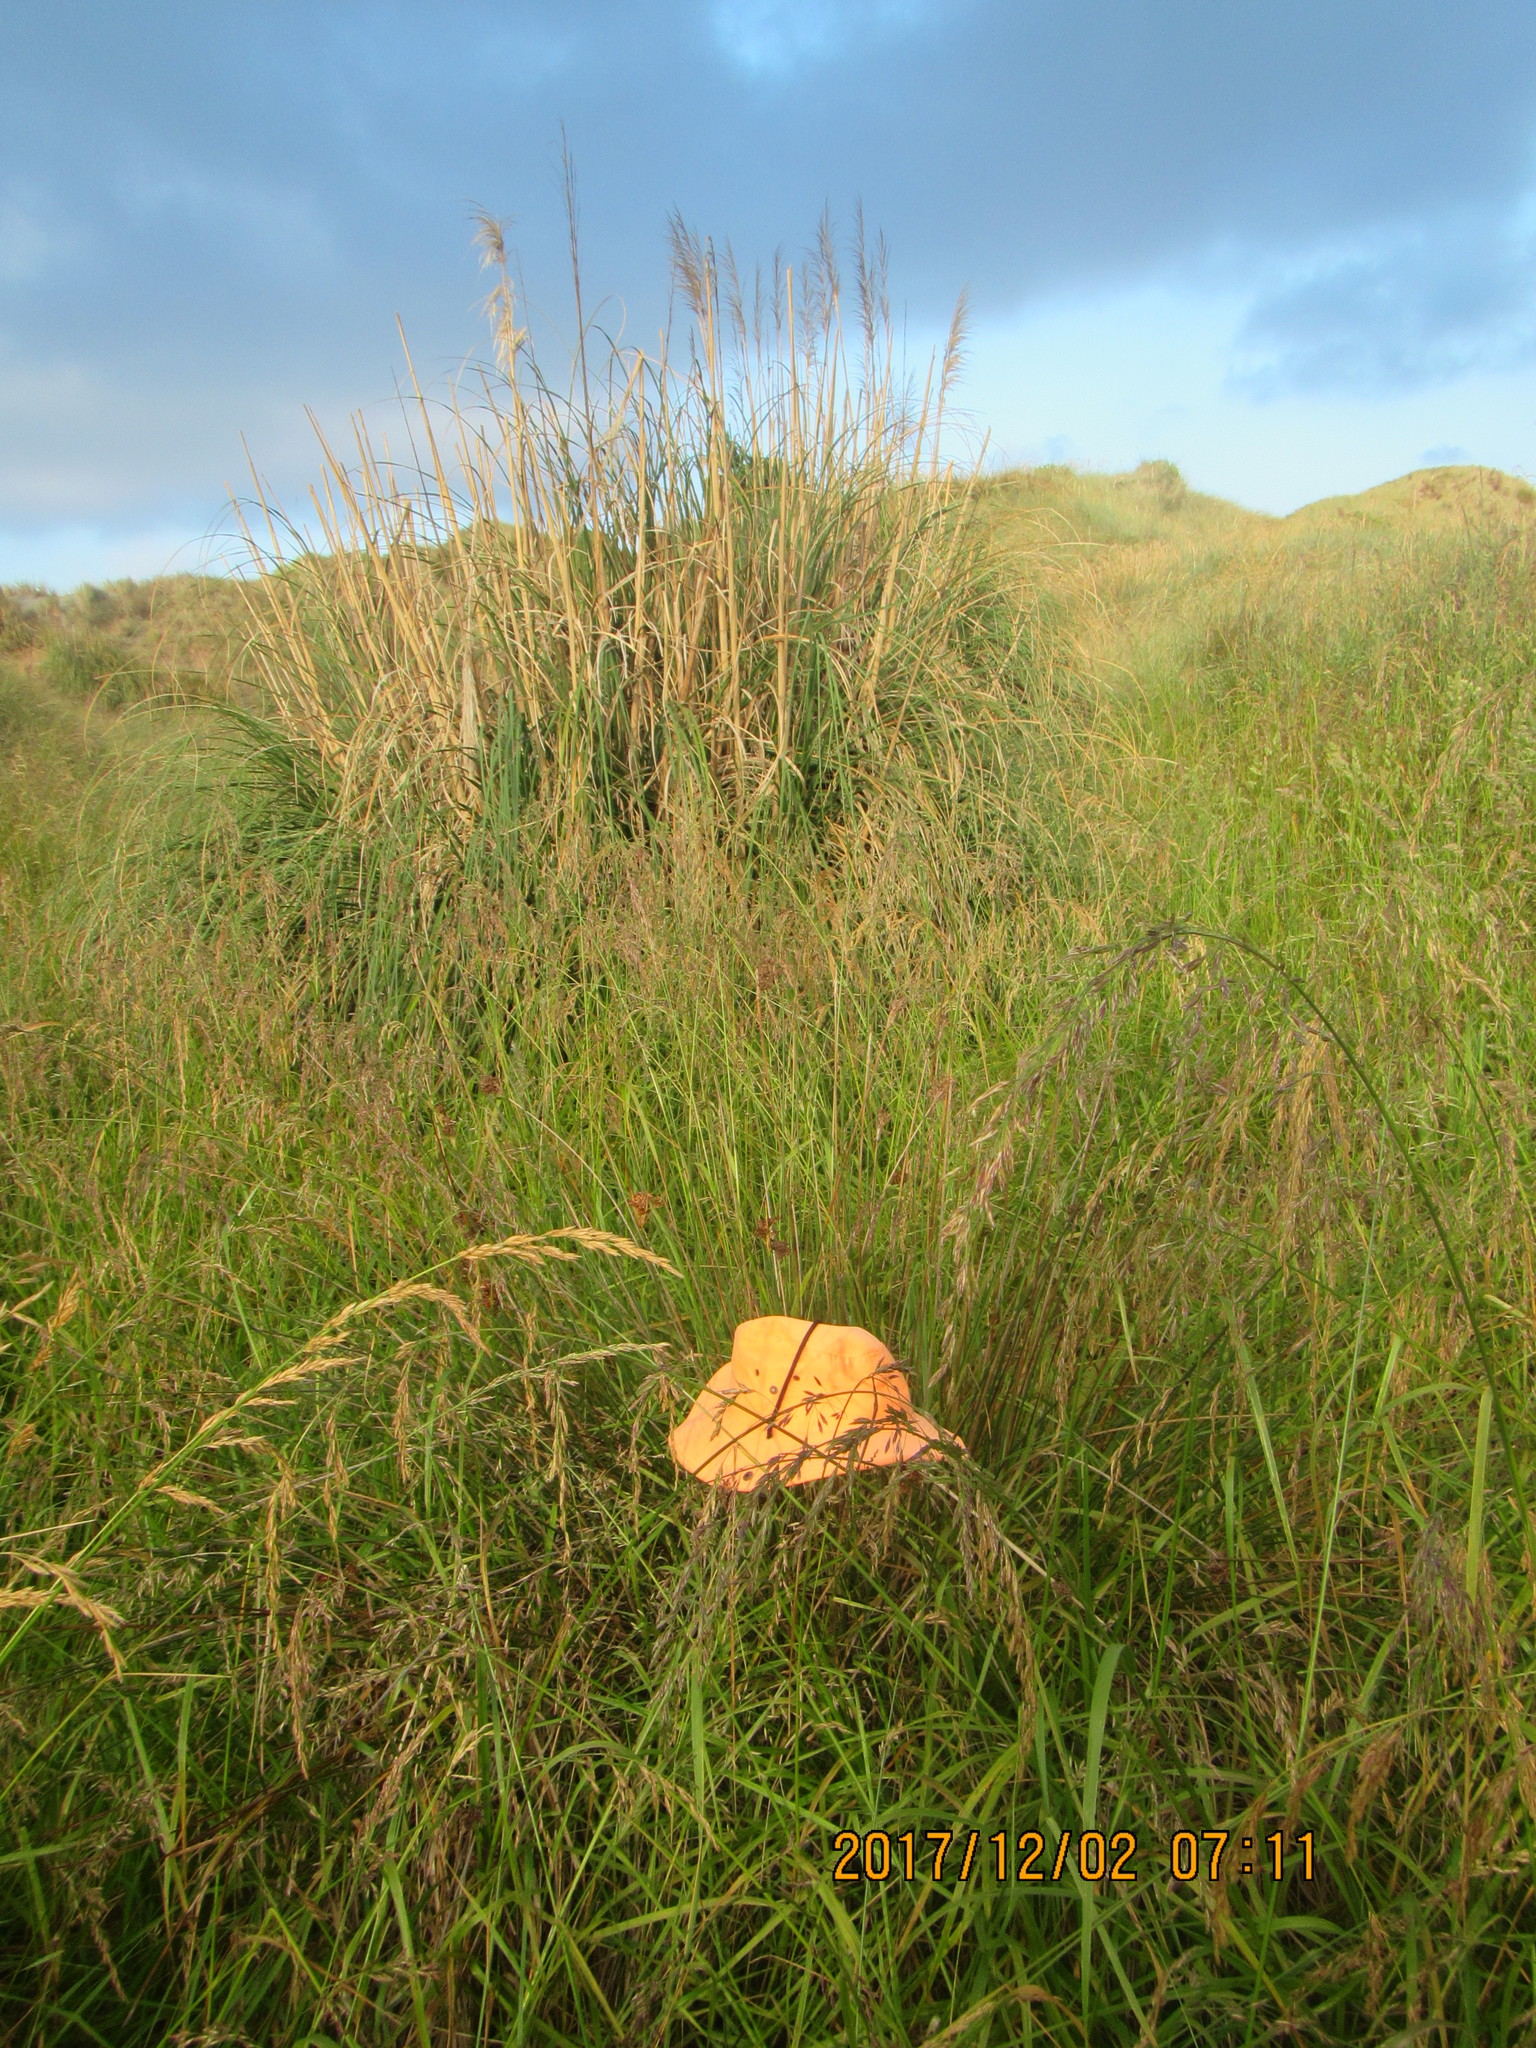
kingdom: Plantae
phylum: Tracheophyta
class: Liliopsida
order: Poales
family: Juncaceae
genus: Juncus
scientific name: Juncus acutus
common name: Sharp rush
